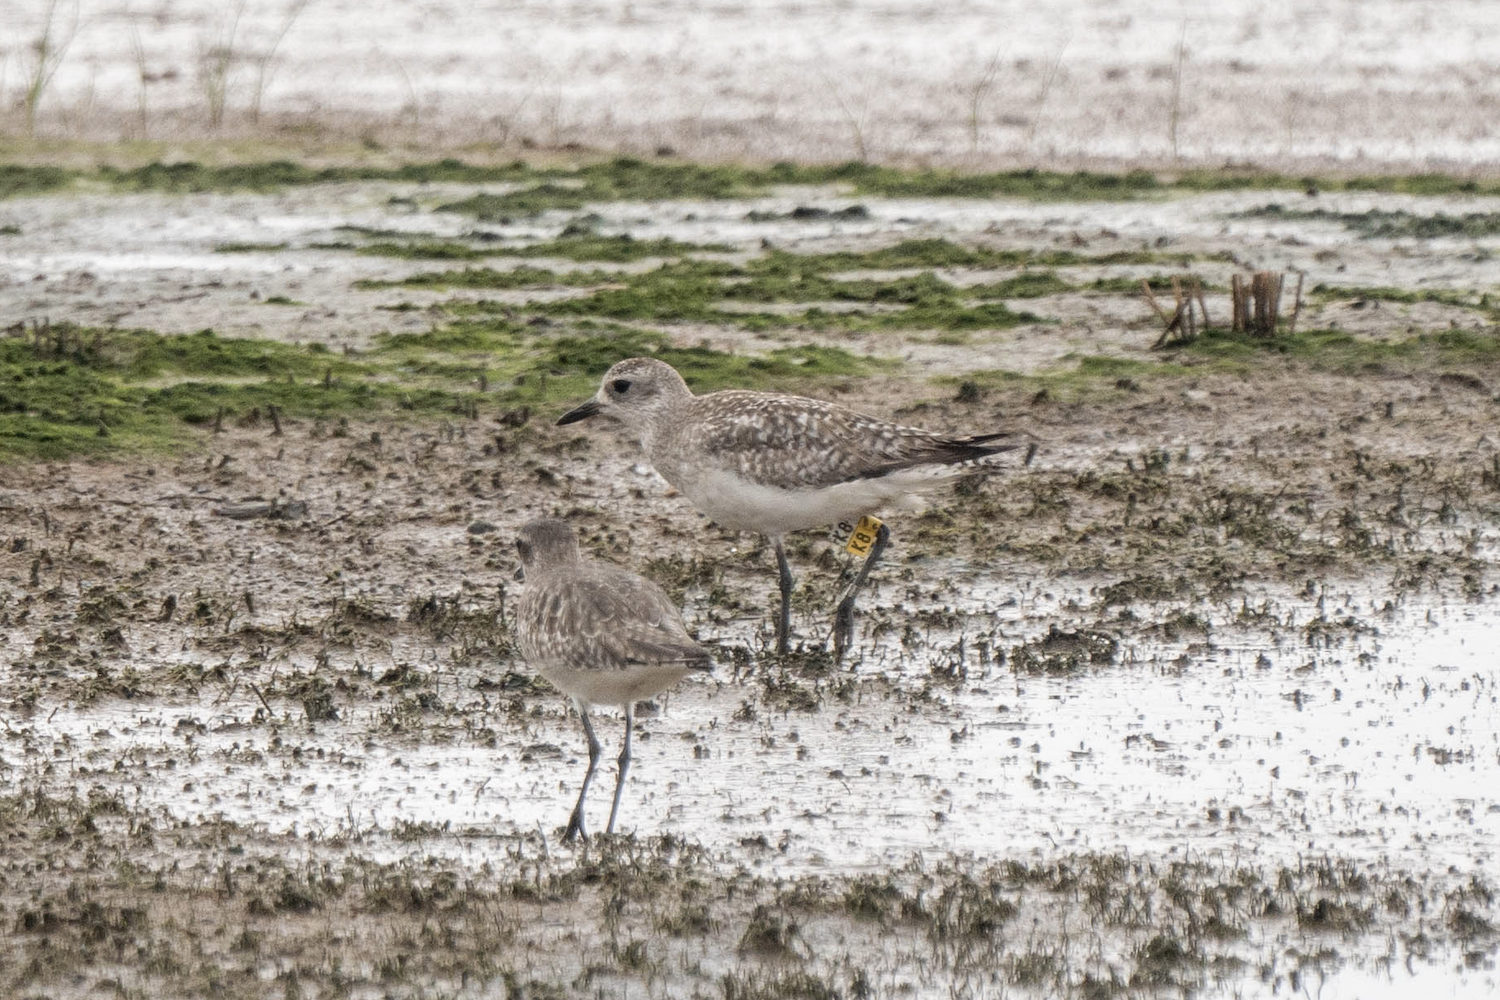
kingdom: Animalia
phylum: Chordata
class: Aves
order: Charadriiformes
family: Charadriidae
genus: Pluvialis
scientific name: Pluvialis squatarola
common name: Grey plover
